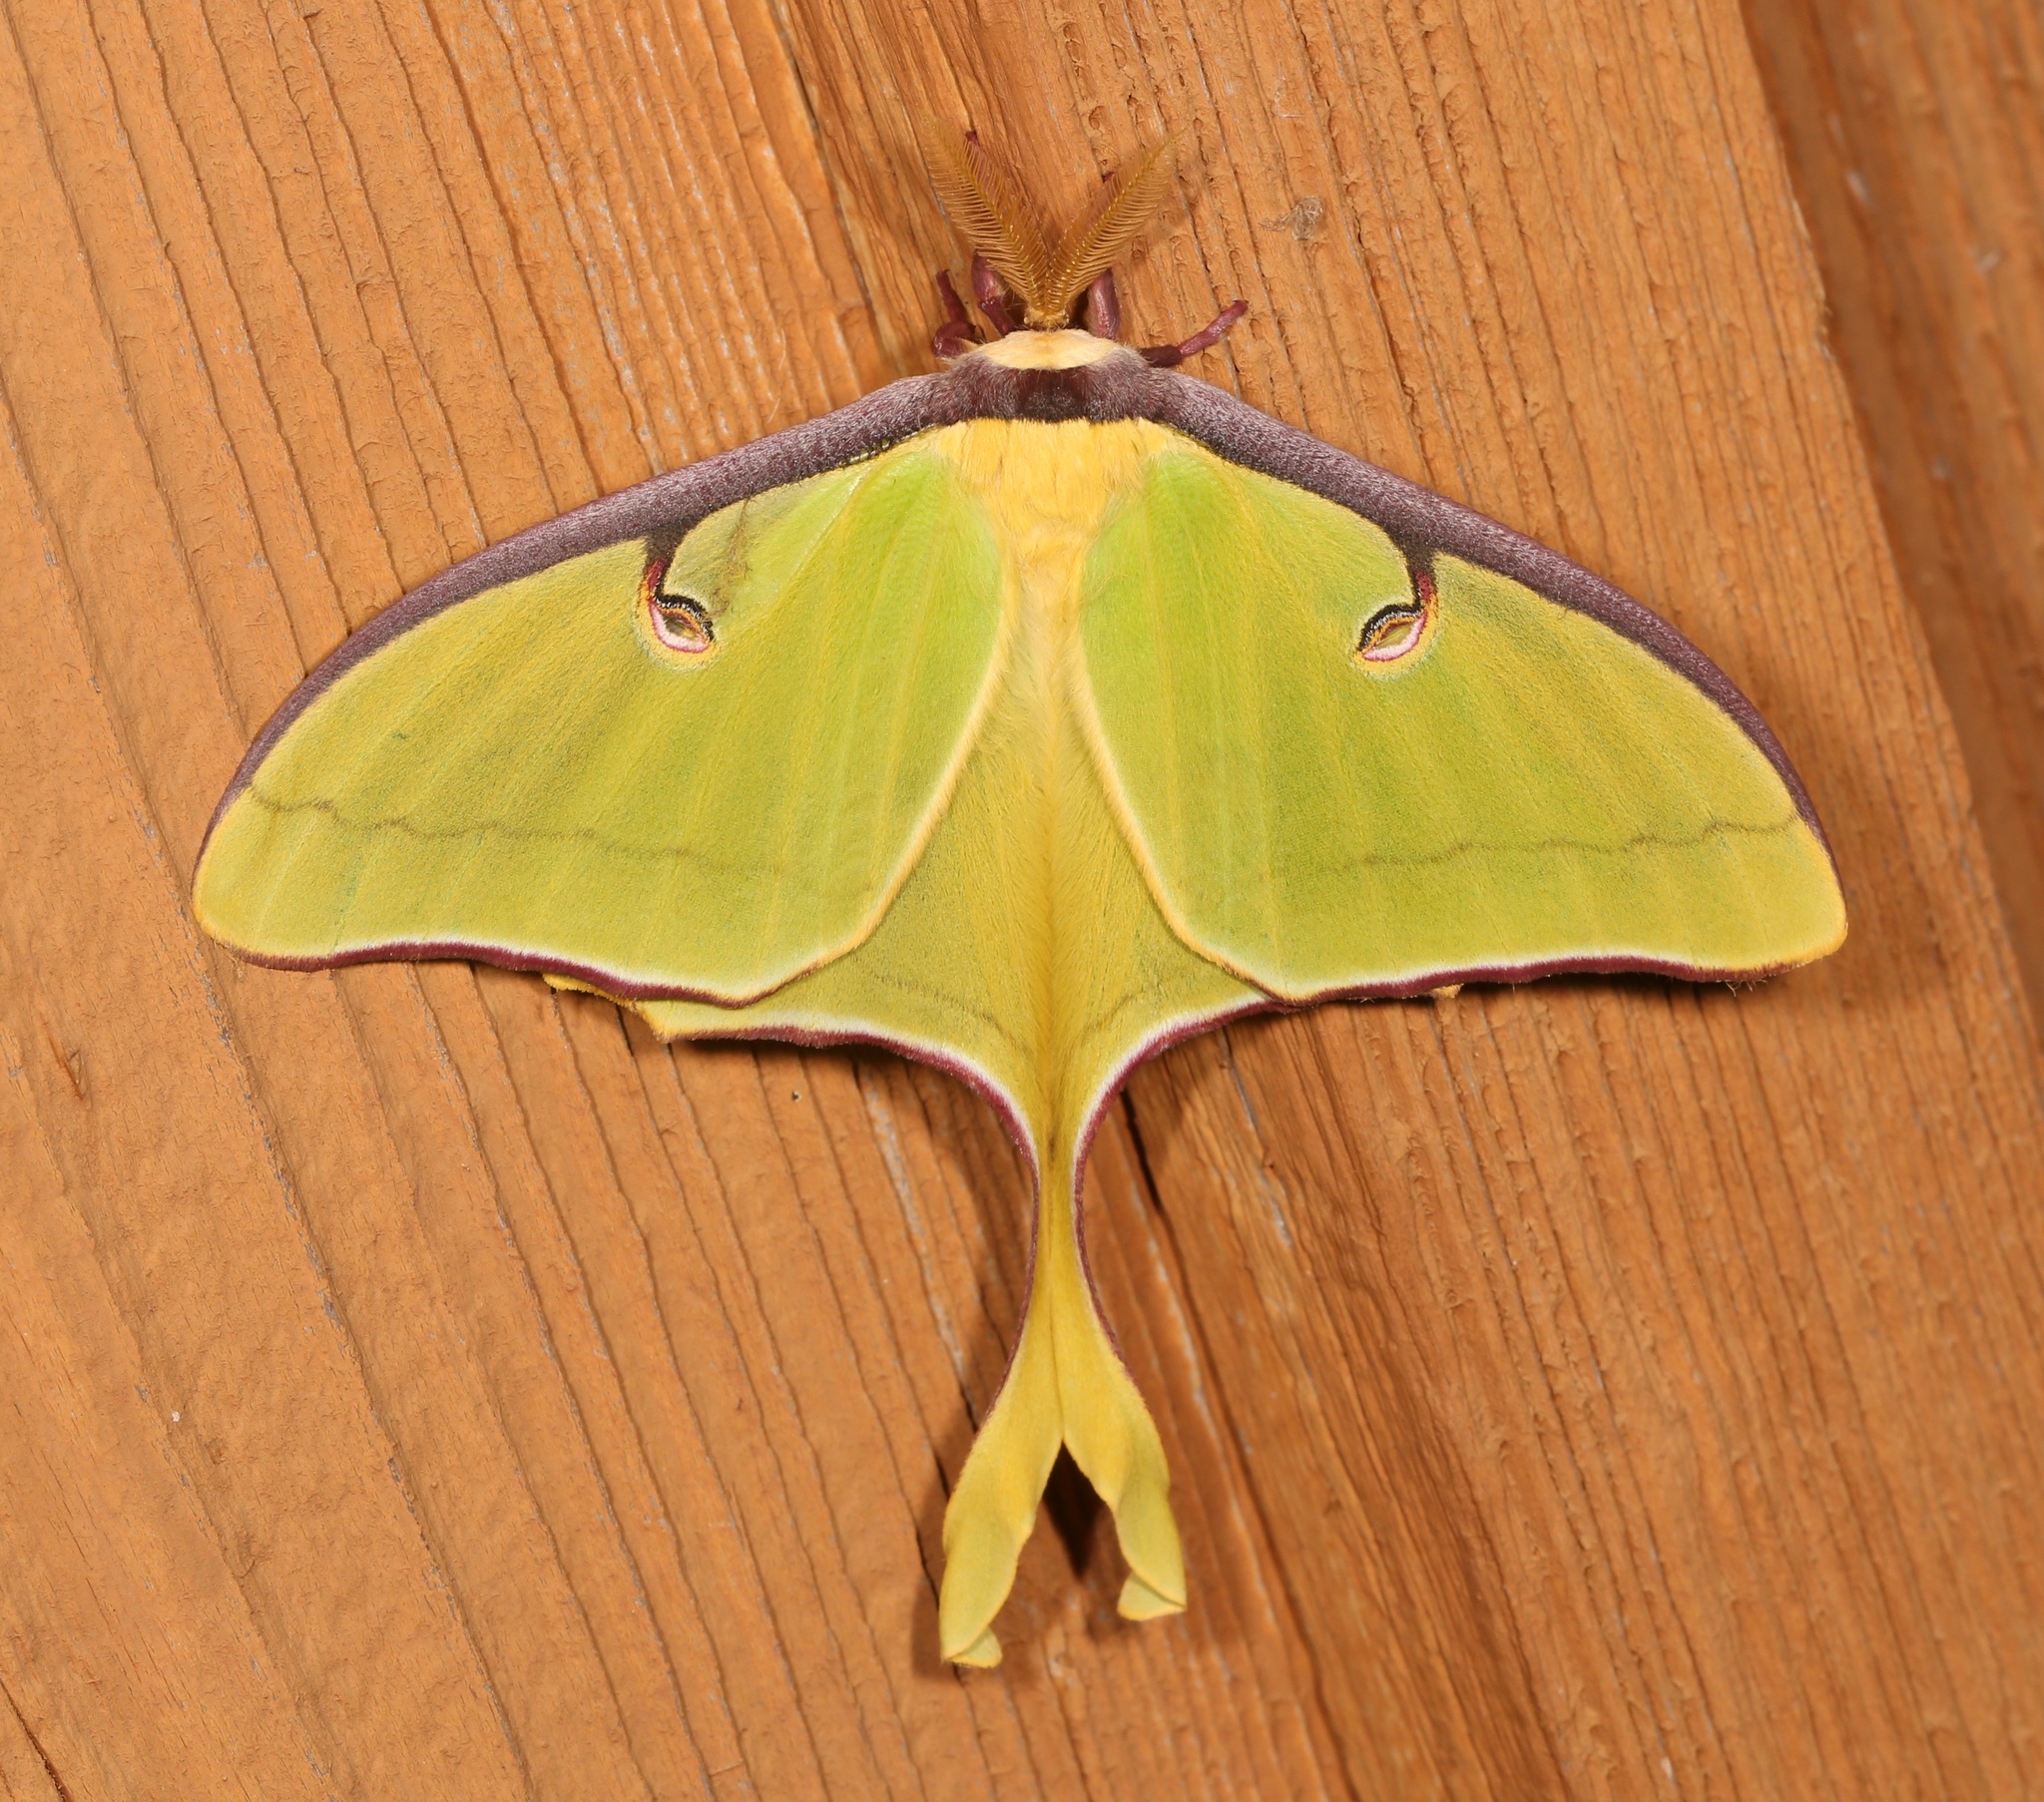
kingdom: Animalia
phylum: Arthropoda
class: Insecta
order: Lepidoptera
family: Saturniidae
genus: Actias
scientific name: Actias luna
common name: Luna moth
